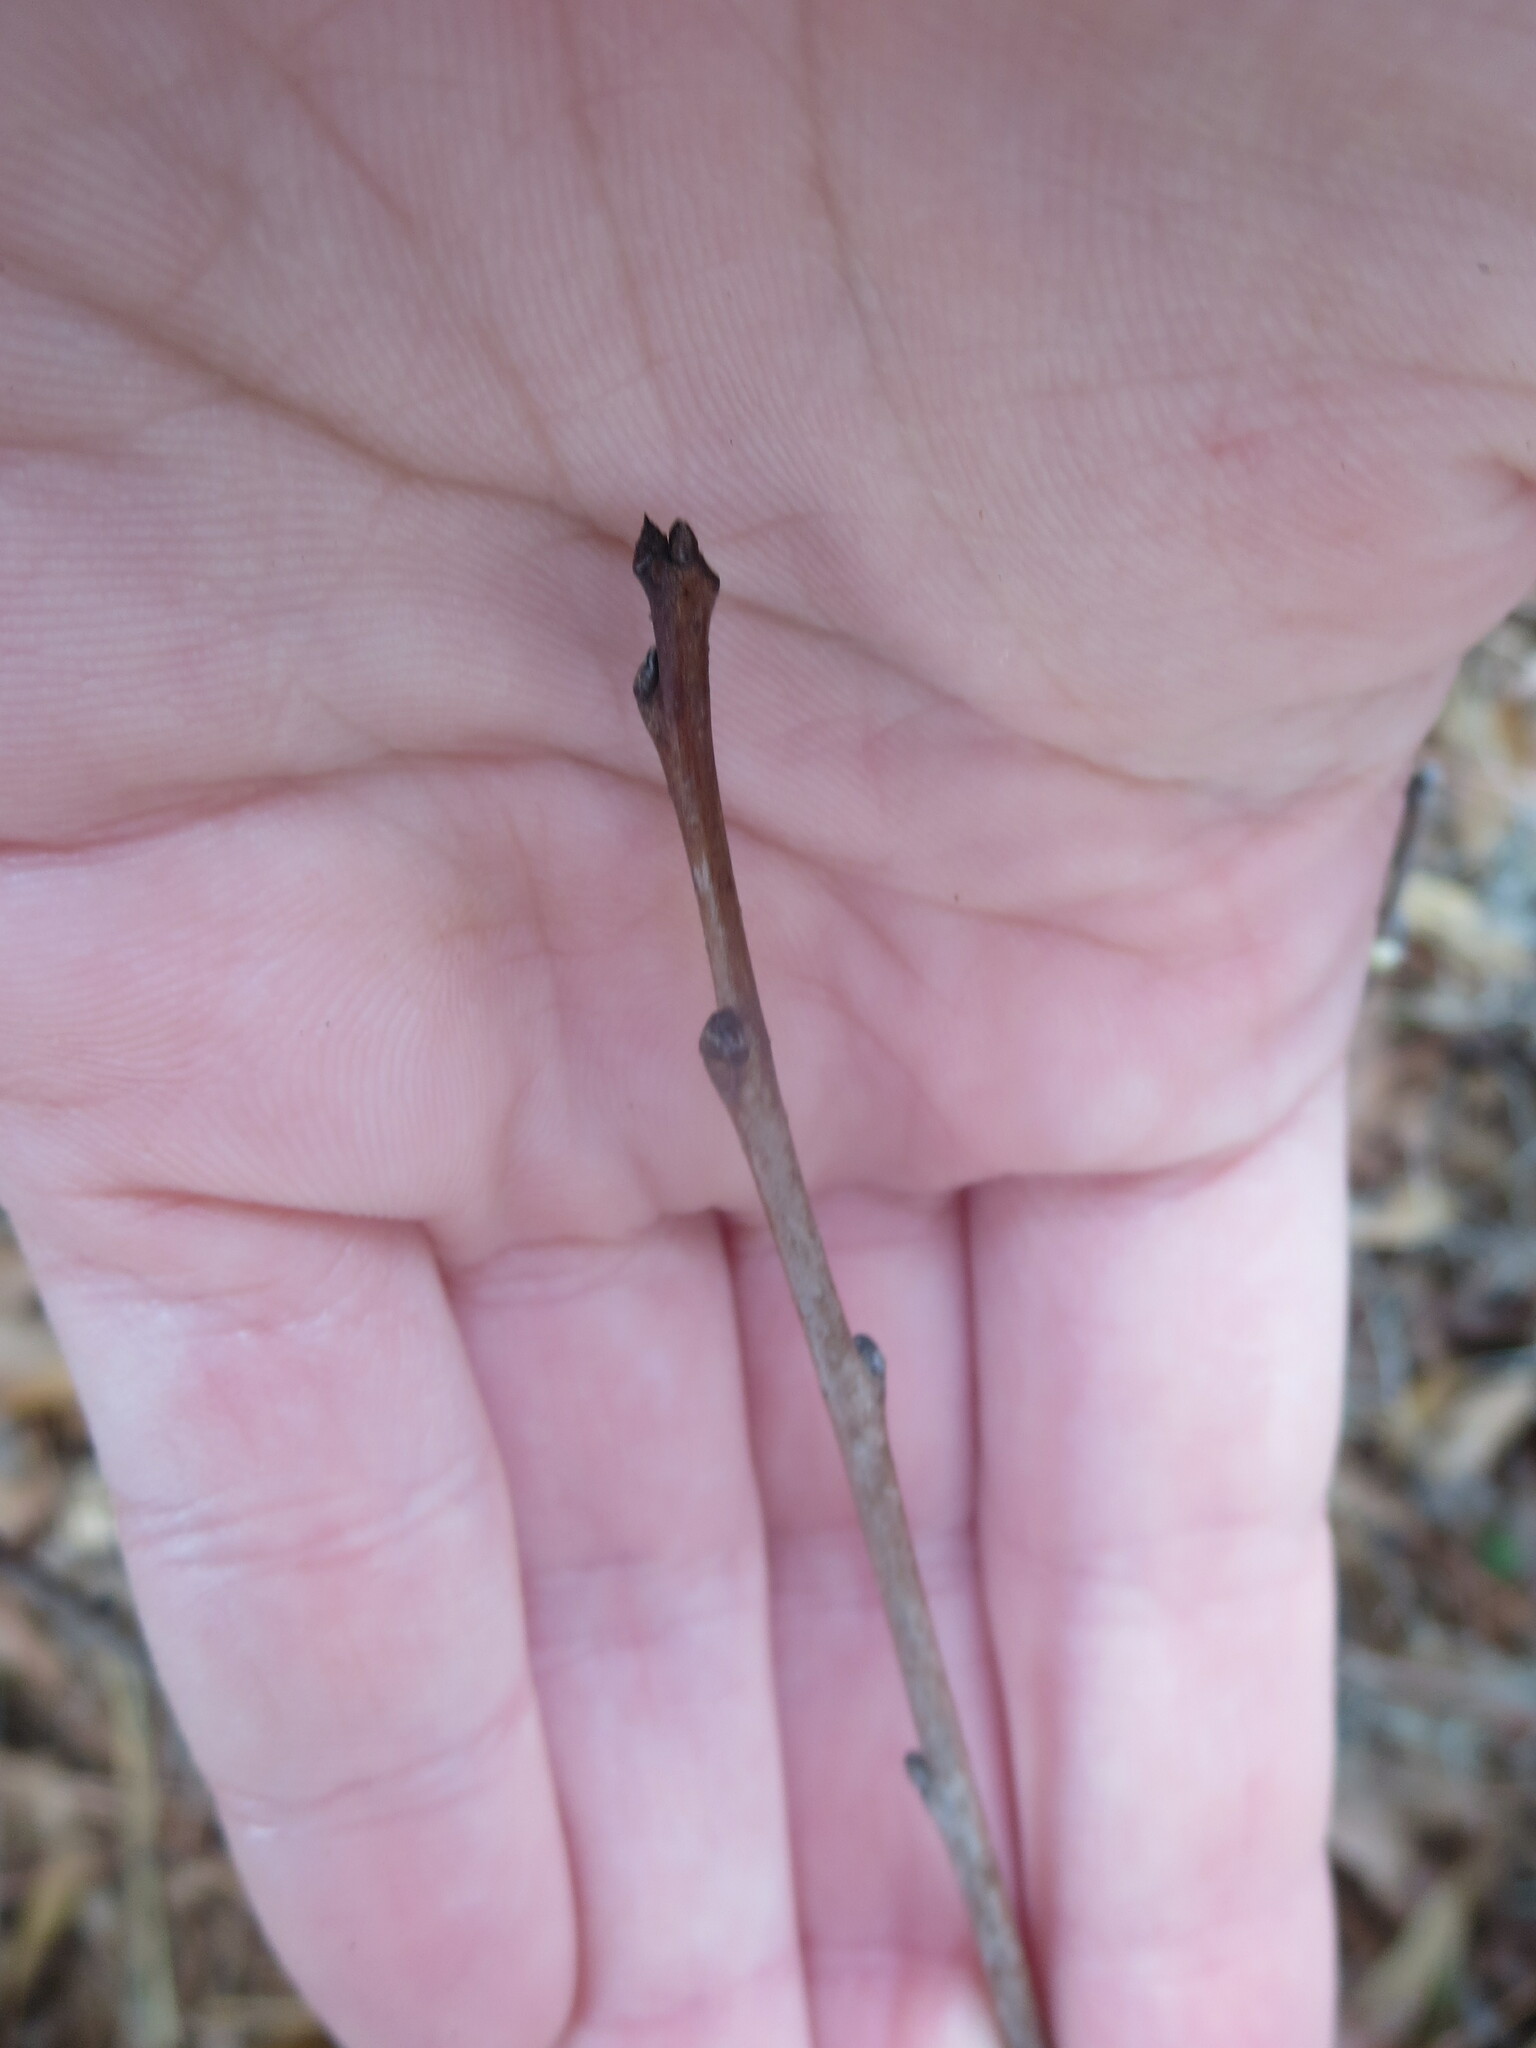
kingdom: Plantae
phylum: Tracheophyta
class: Magnoliopsida
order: Ericales
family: Ebenaceae
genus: Diospyros
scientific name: Diospyros virginiana
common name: Persimmon
